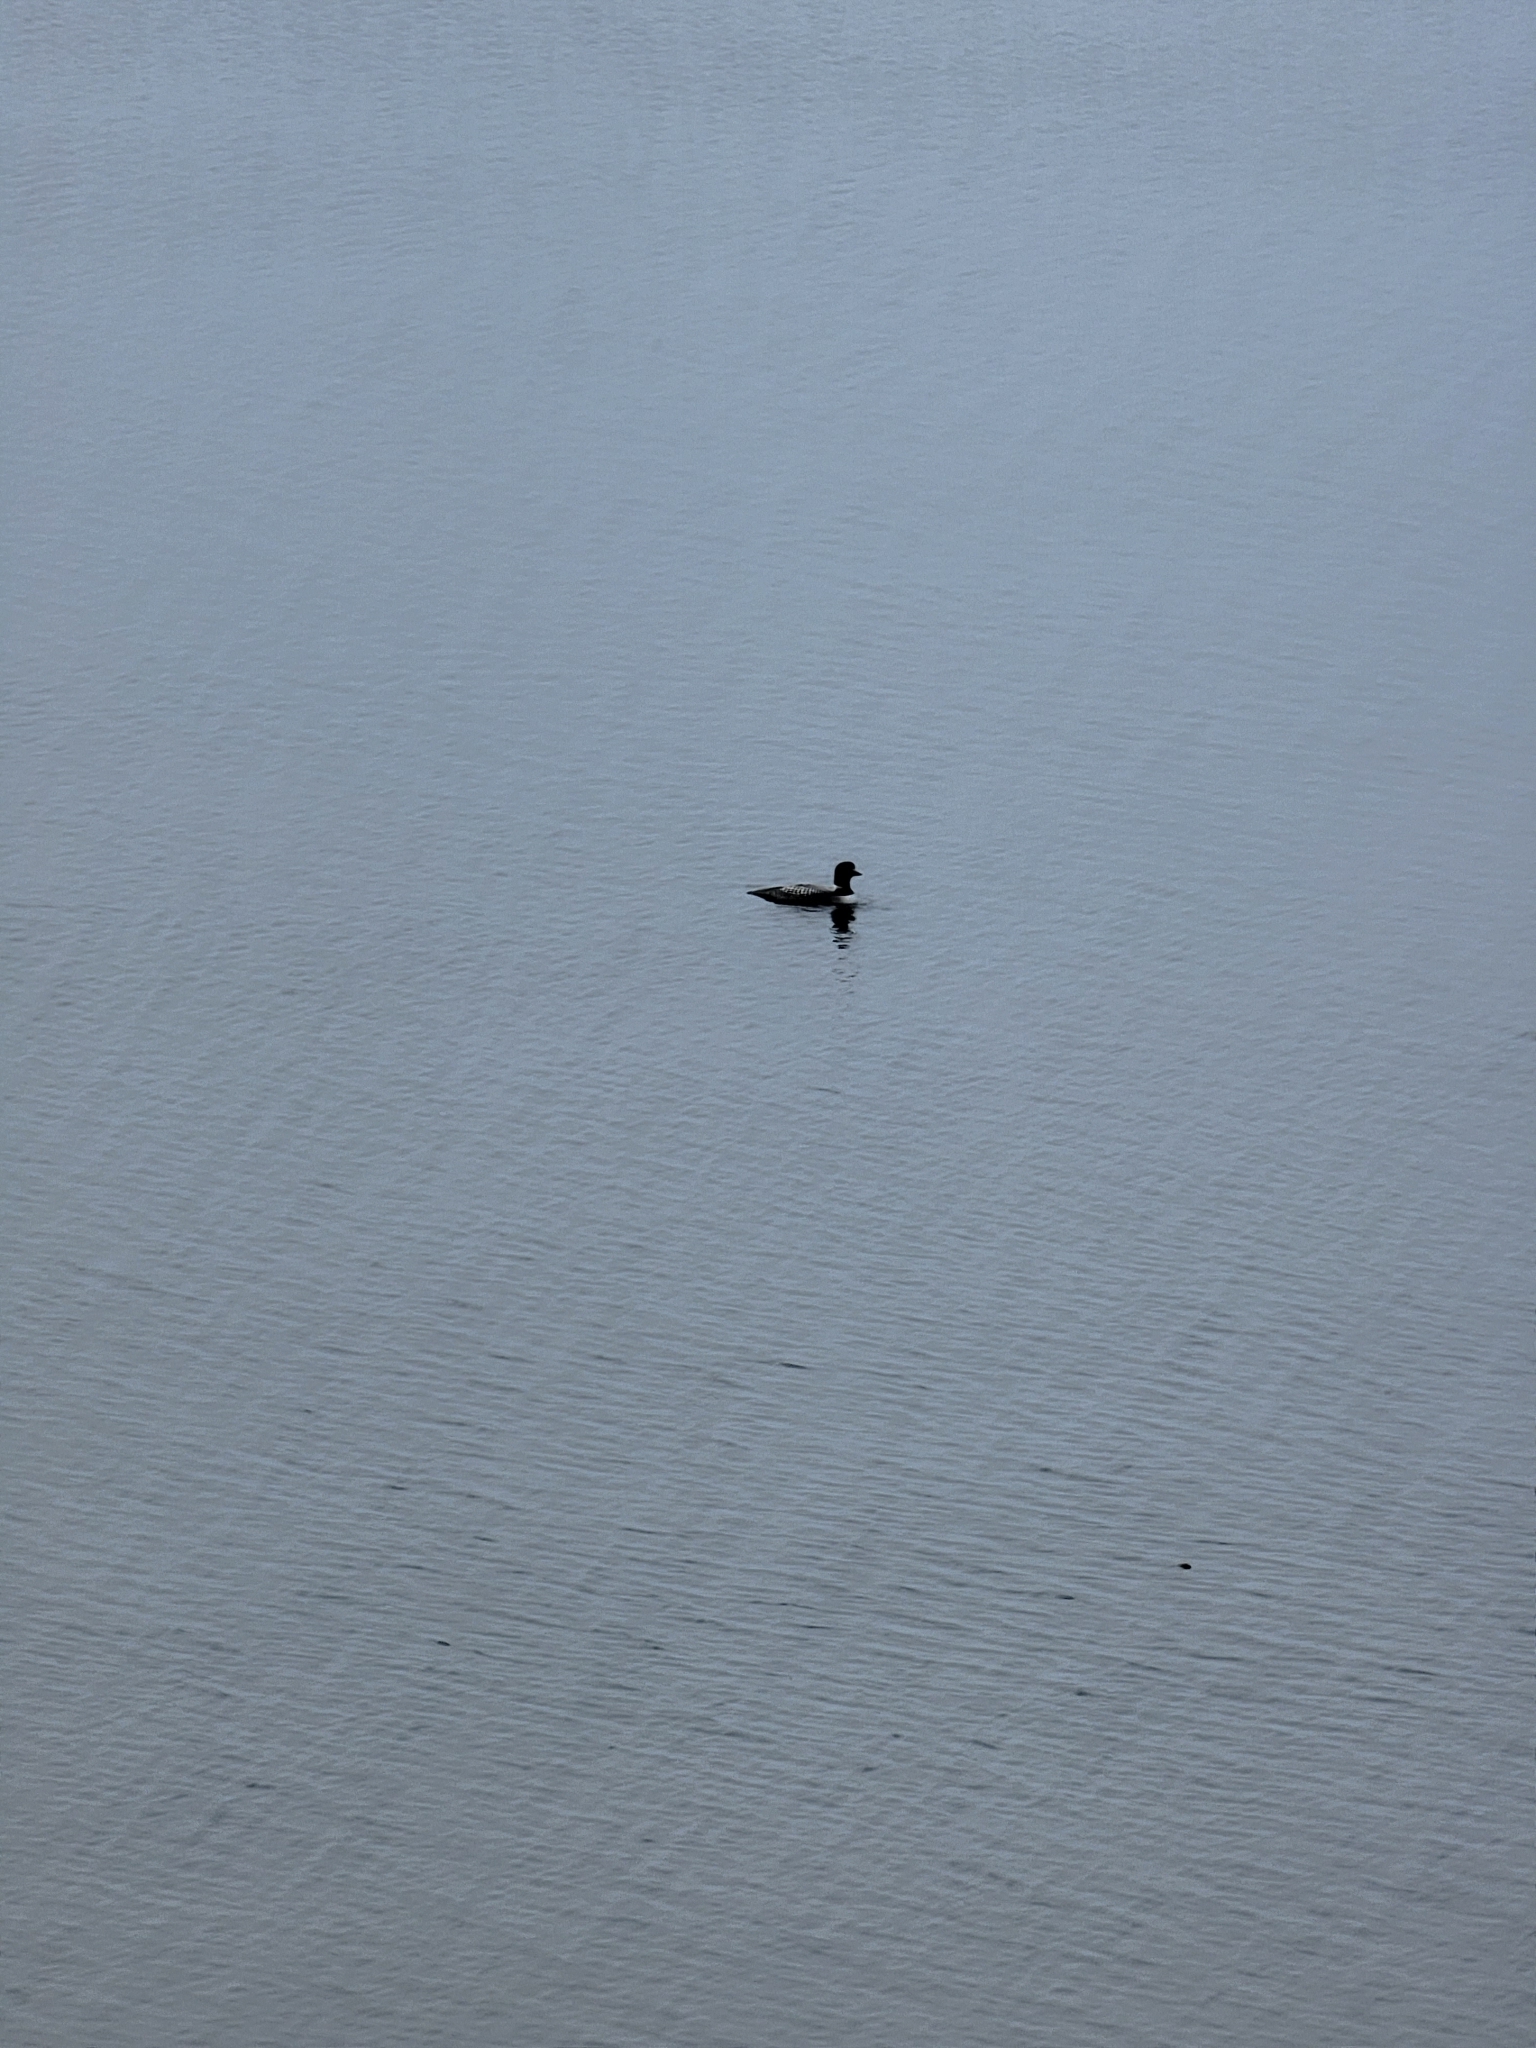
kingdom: Animalia
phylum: Chordata
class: Aves
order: Gaviiformes
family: Gaviidae
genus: Gavia
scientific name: Gavia immer
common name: Common loon
